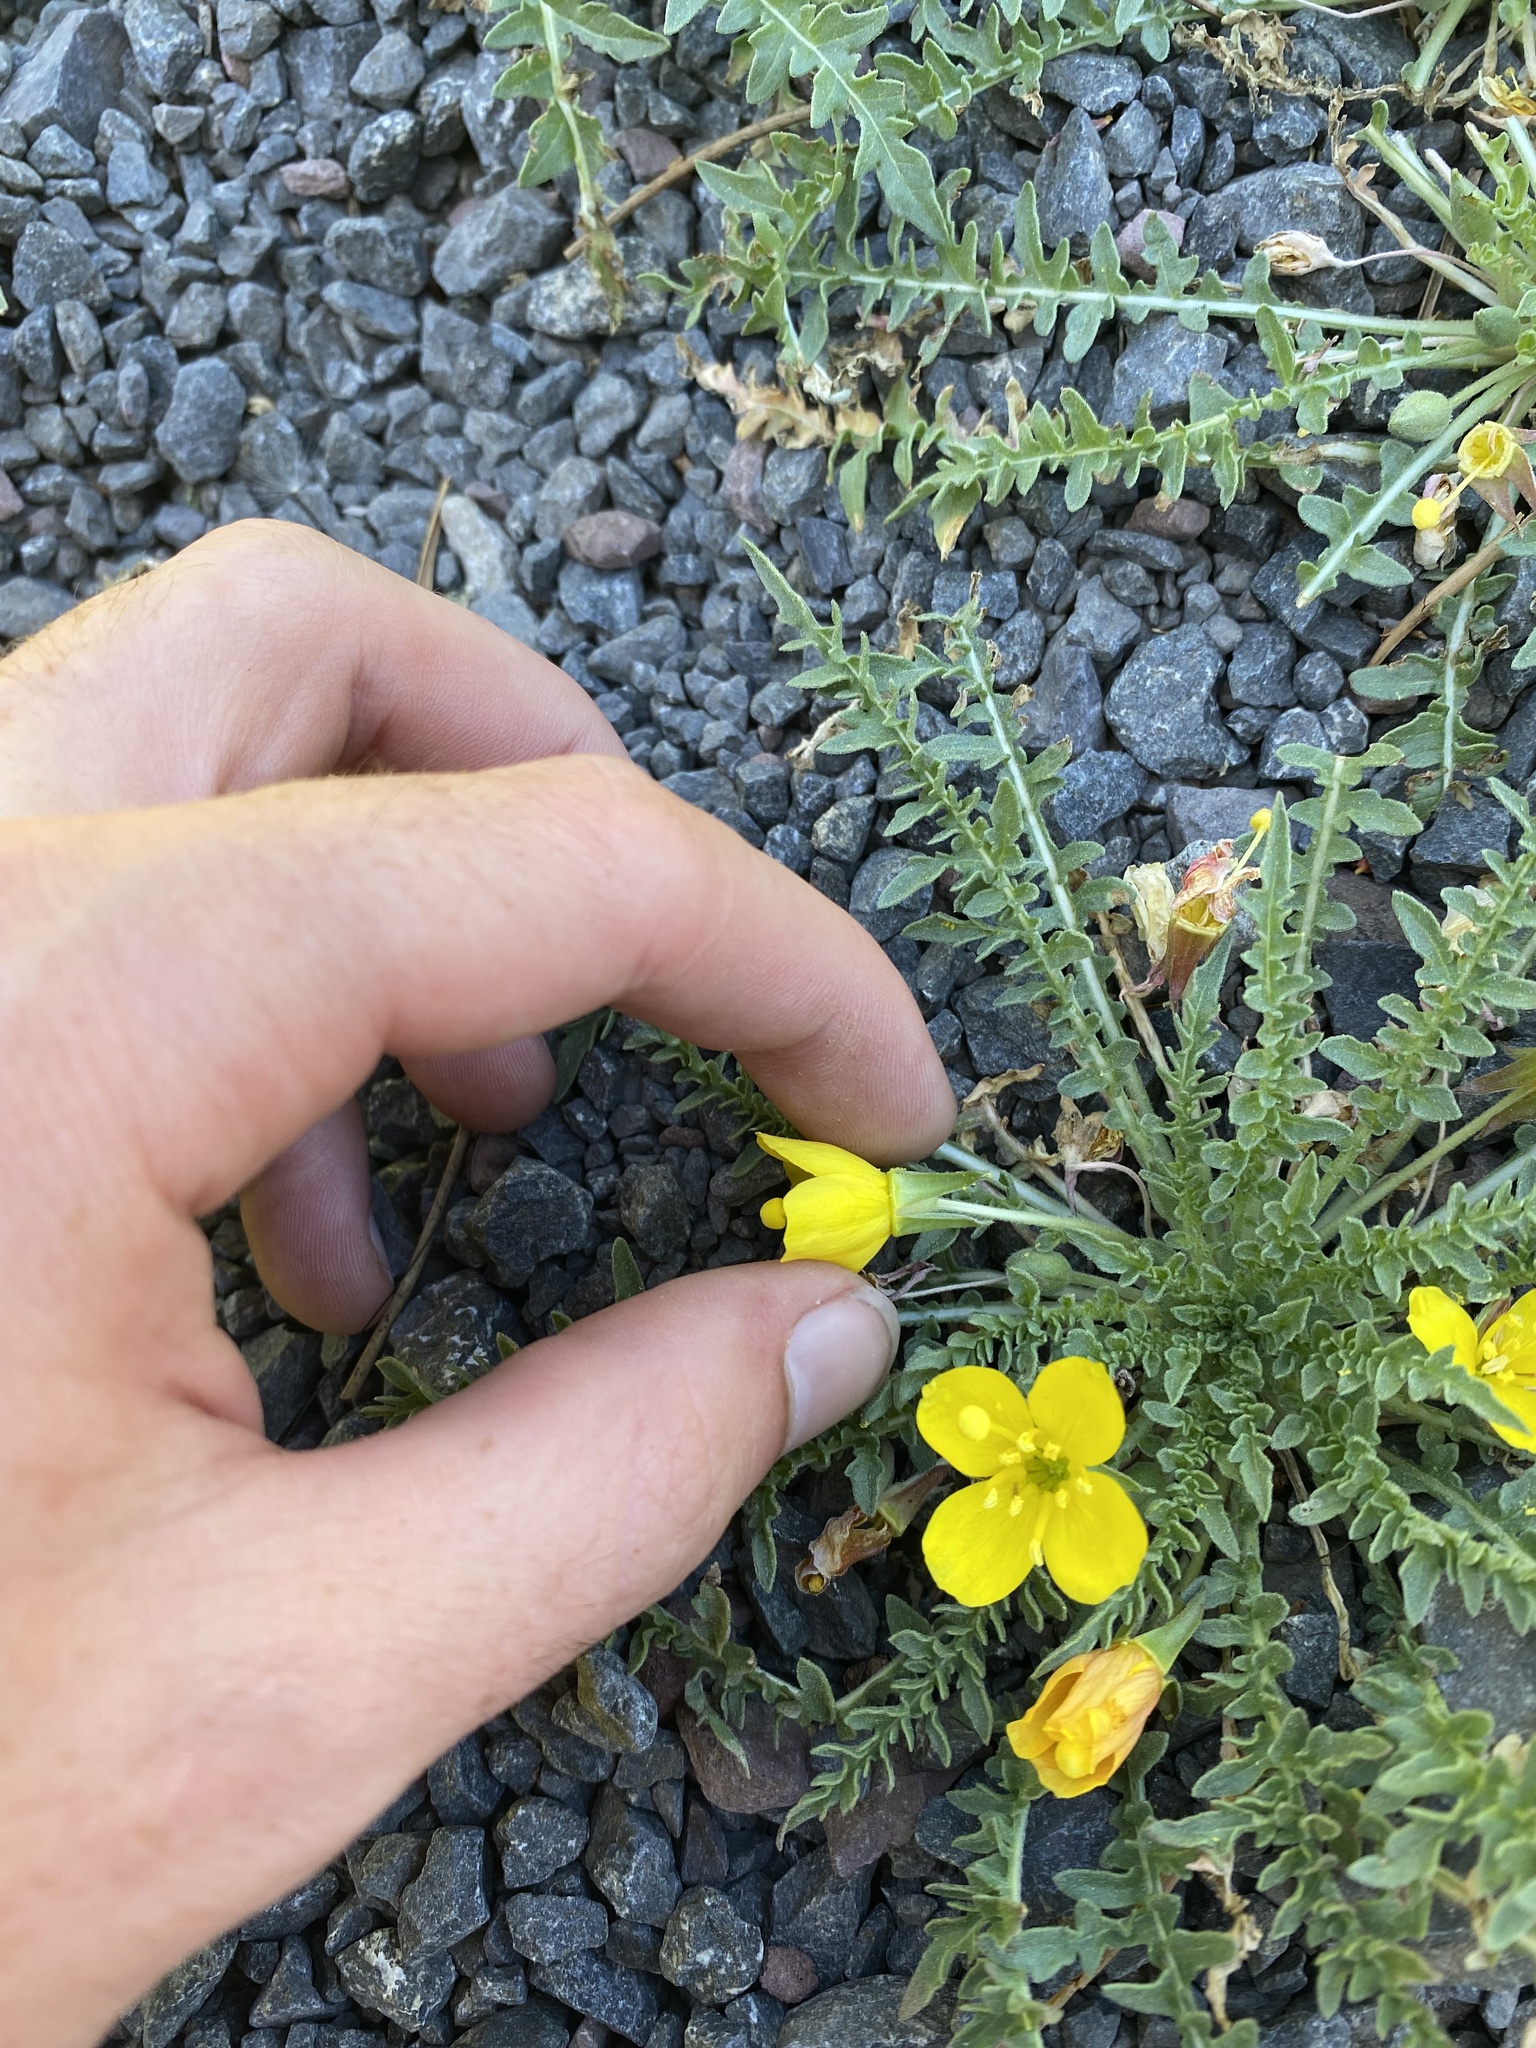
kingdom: Plantae
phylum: Tracheophyta
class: Magnoliopsida
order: Myrtales
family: Onagraceae
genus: Taraxia
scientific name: Taraxia tanacetifolia
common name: Tansyleaf evening primrose
